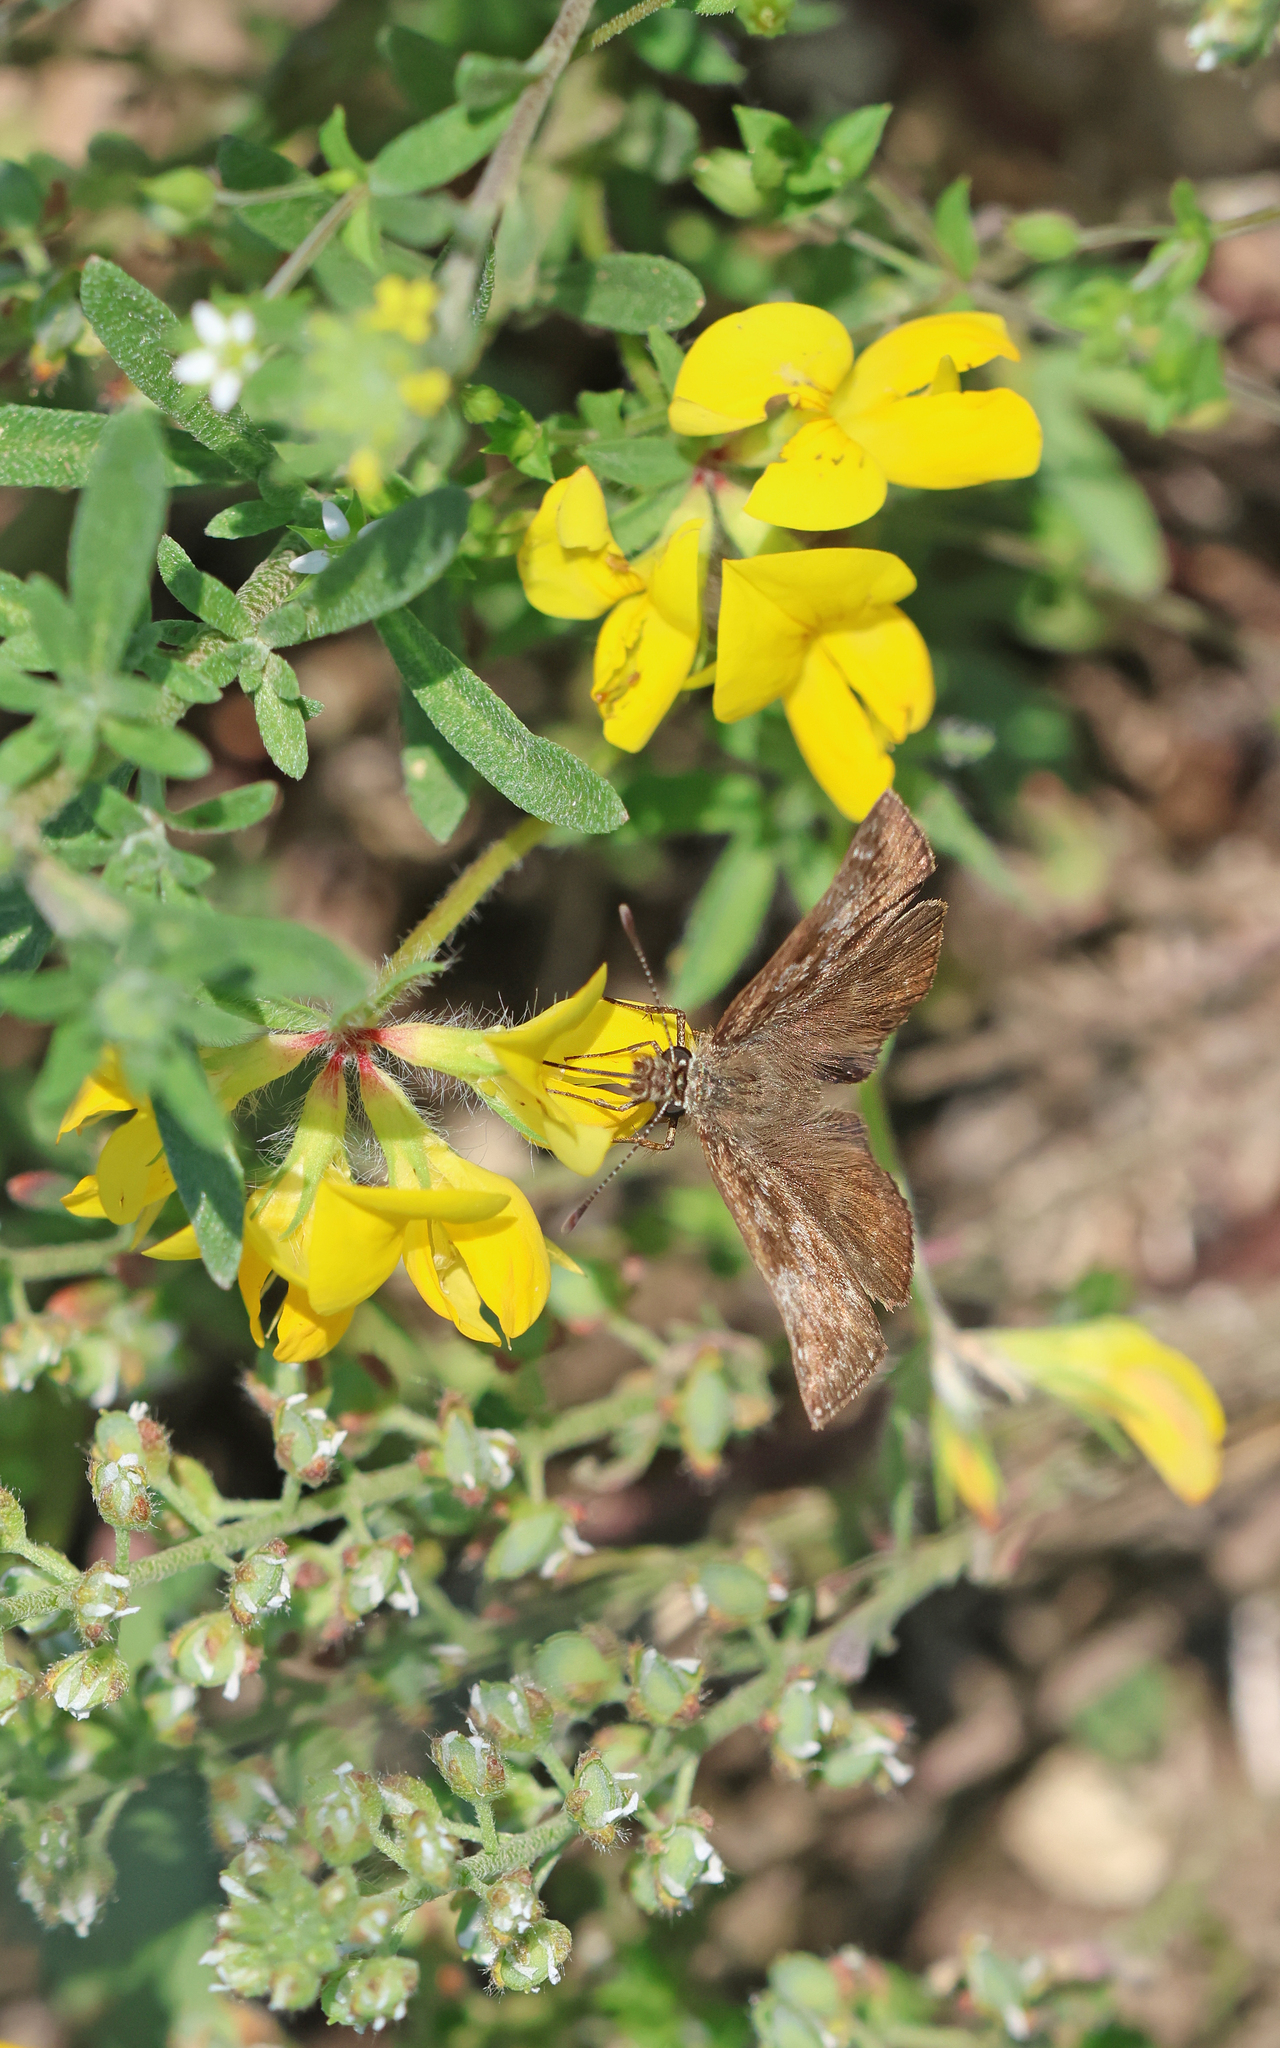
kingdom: Animalia
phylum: Arthropoda
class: Insecta
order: Lepidoptera
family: Hesperiidae
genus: Erynnis
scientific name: Erynnis tages
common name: Dingy skipper
